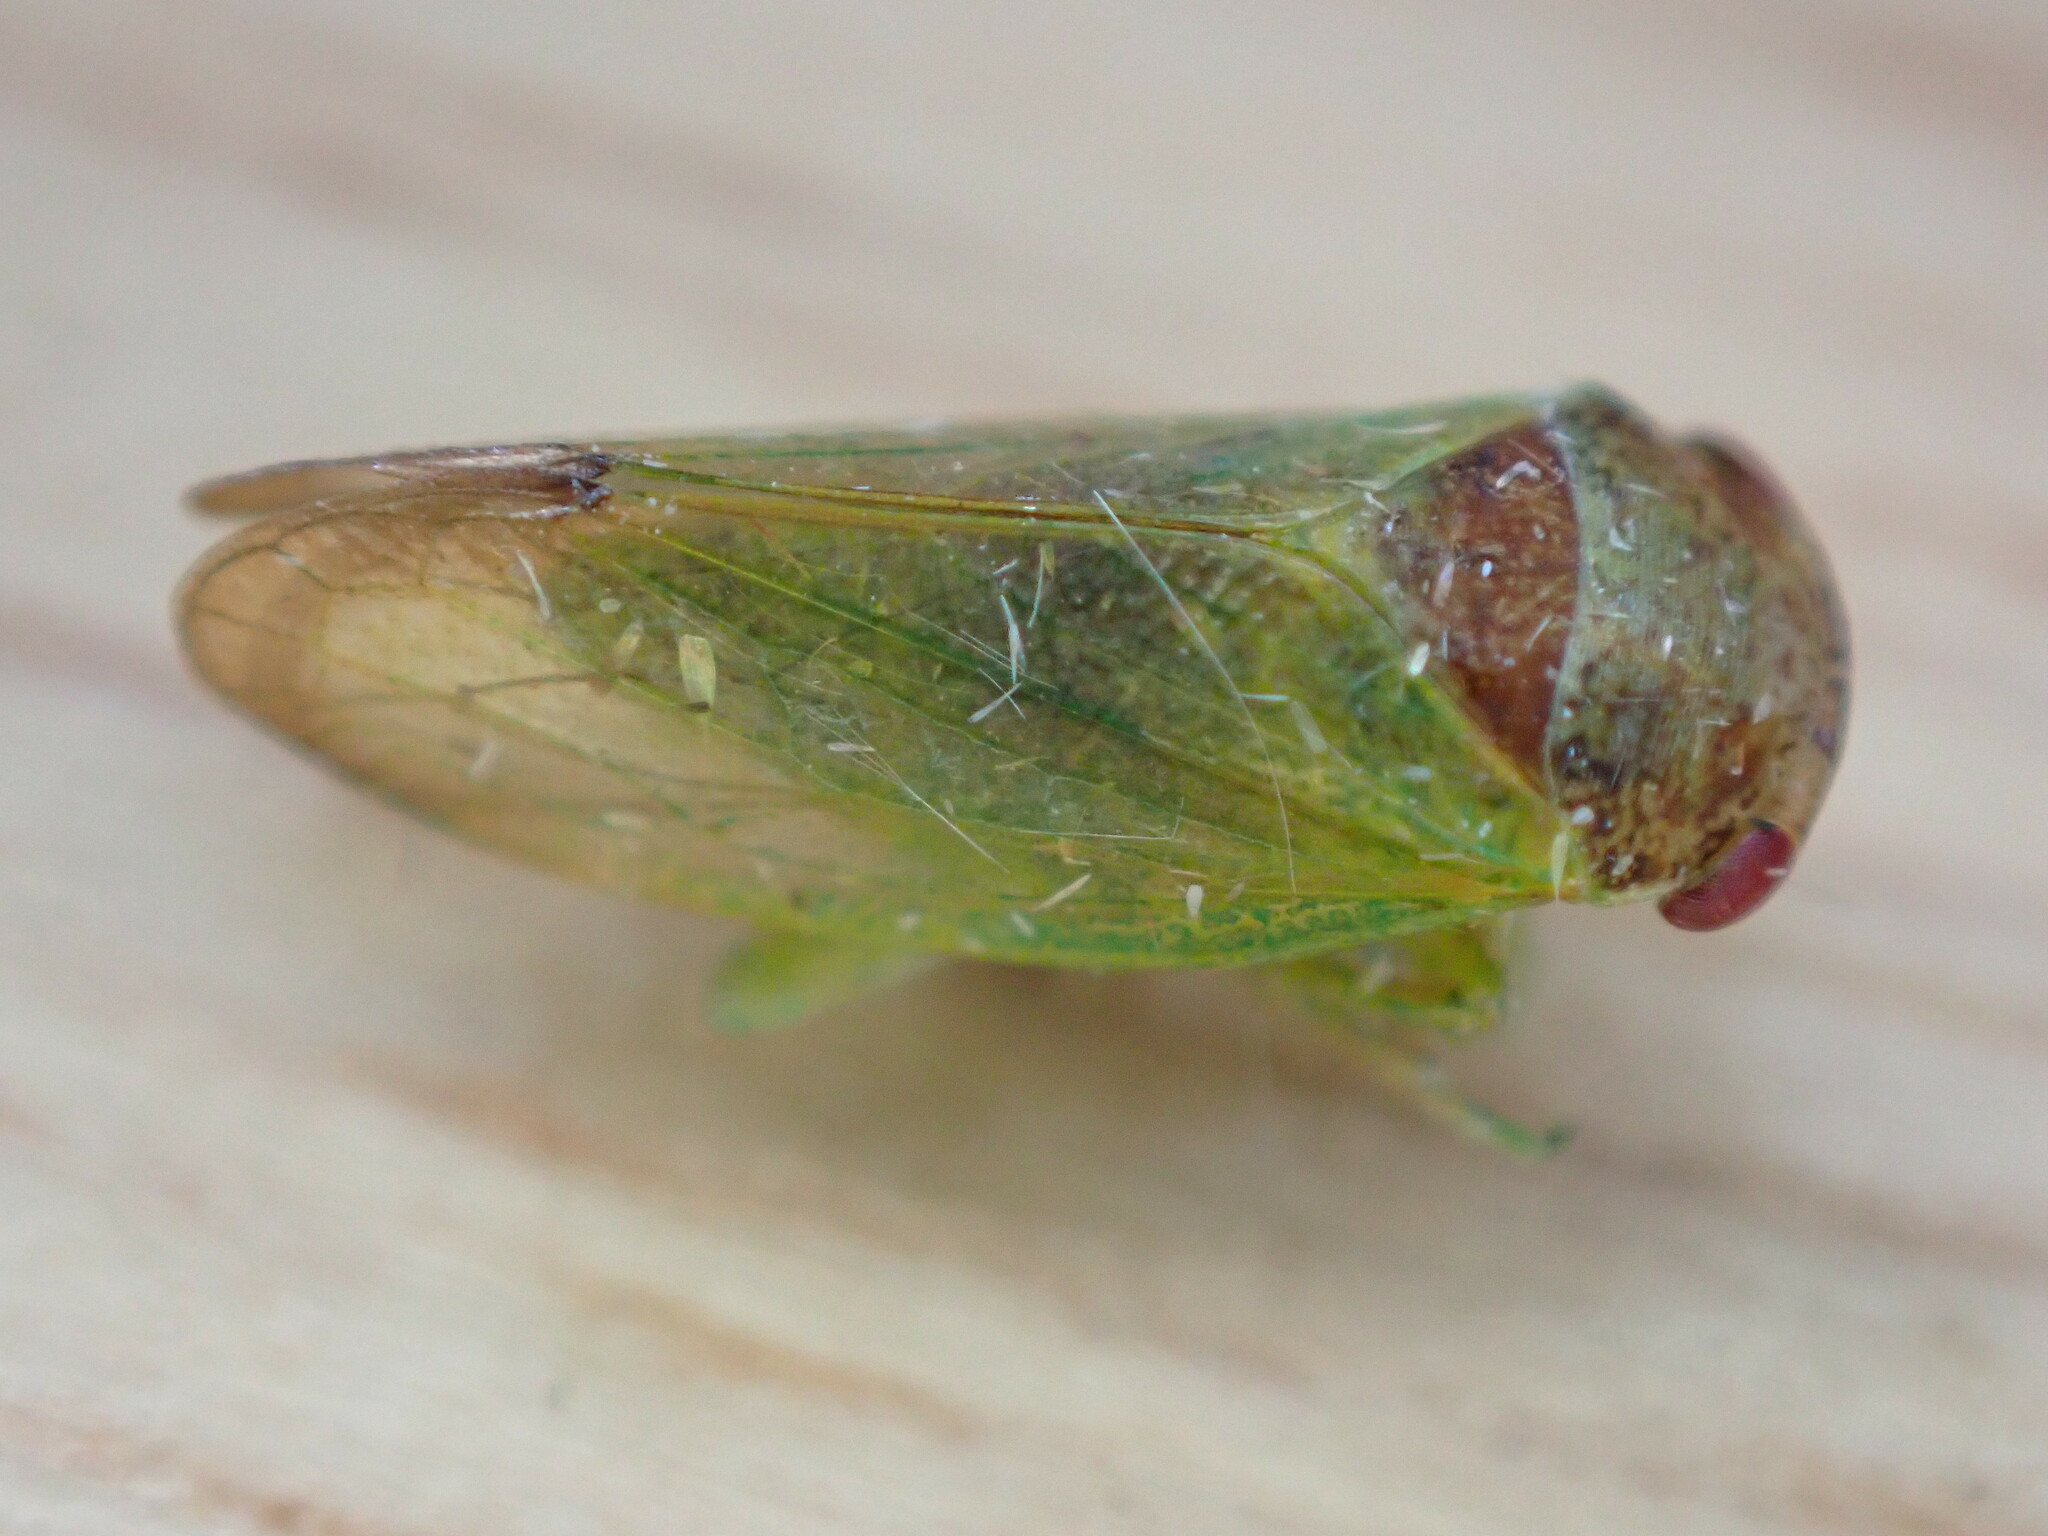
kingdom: Animalia
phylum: Arthropoda
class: Insecta
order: Hemiptera
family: Cicadellidae
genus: Iassus
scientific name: Iassus lanio
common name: Leafhopper
